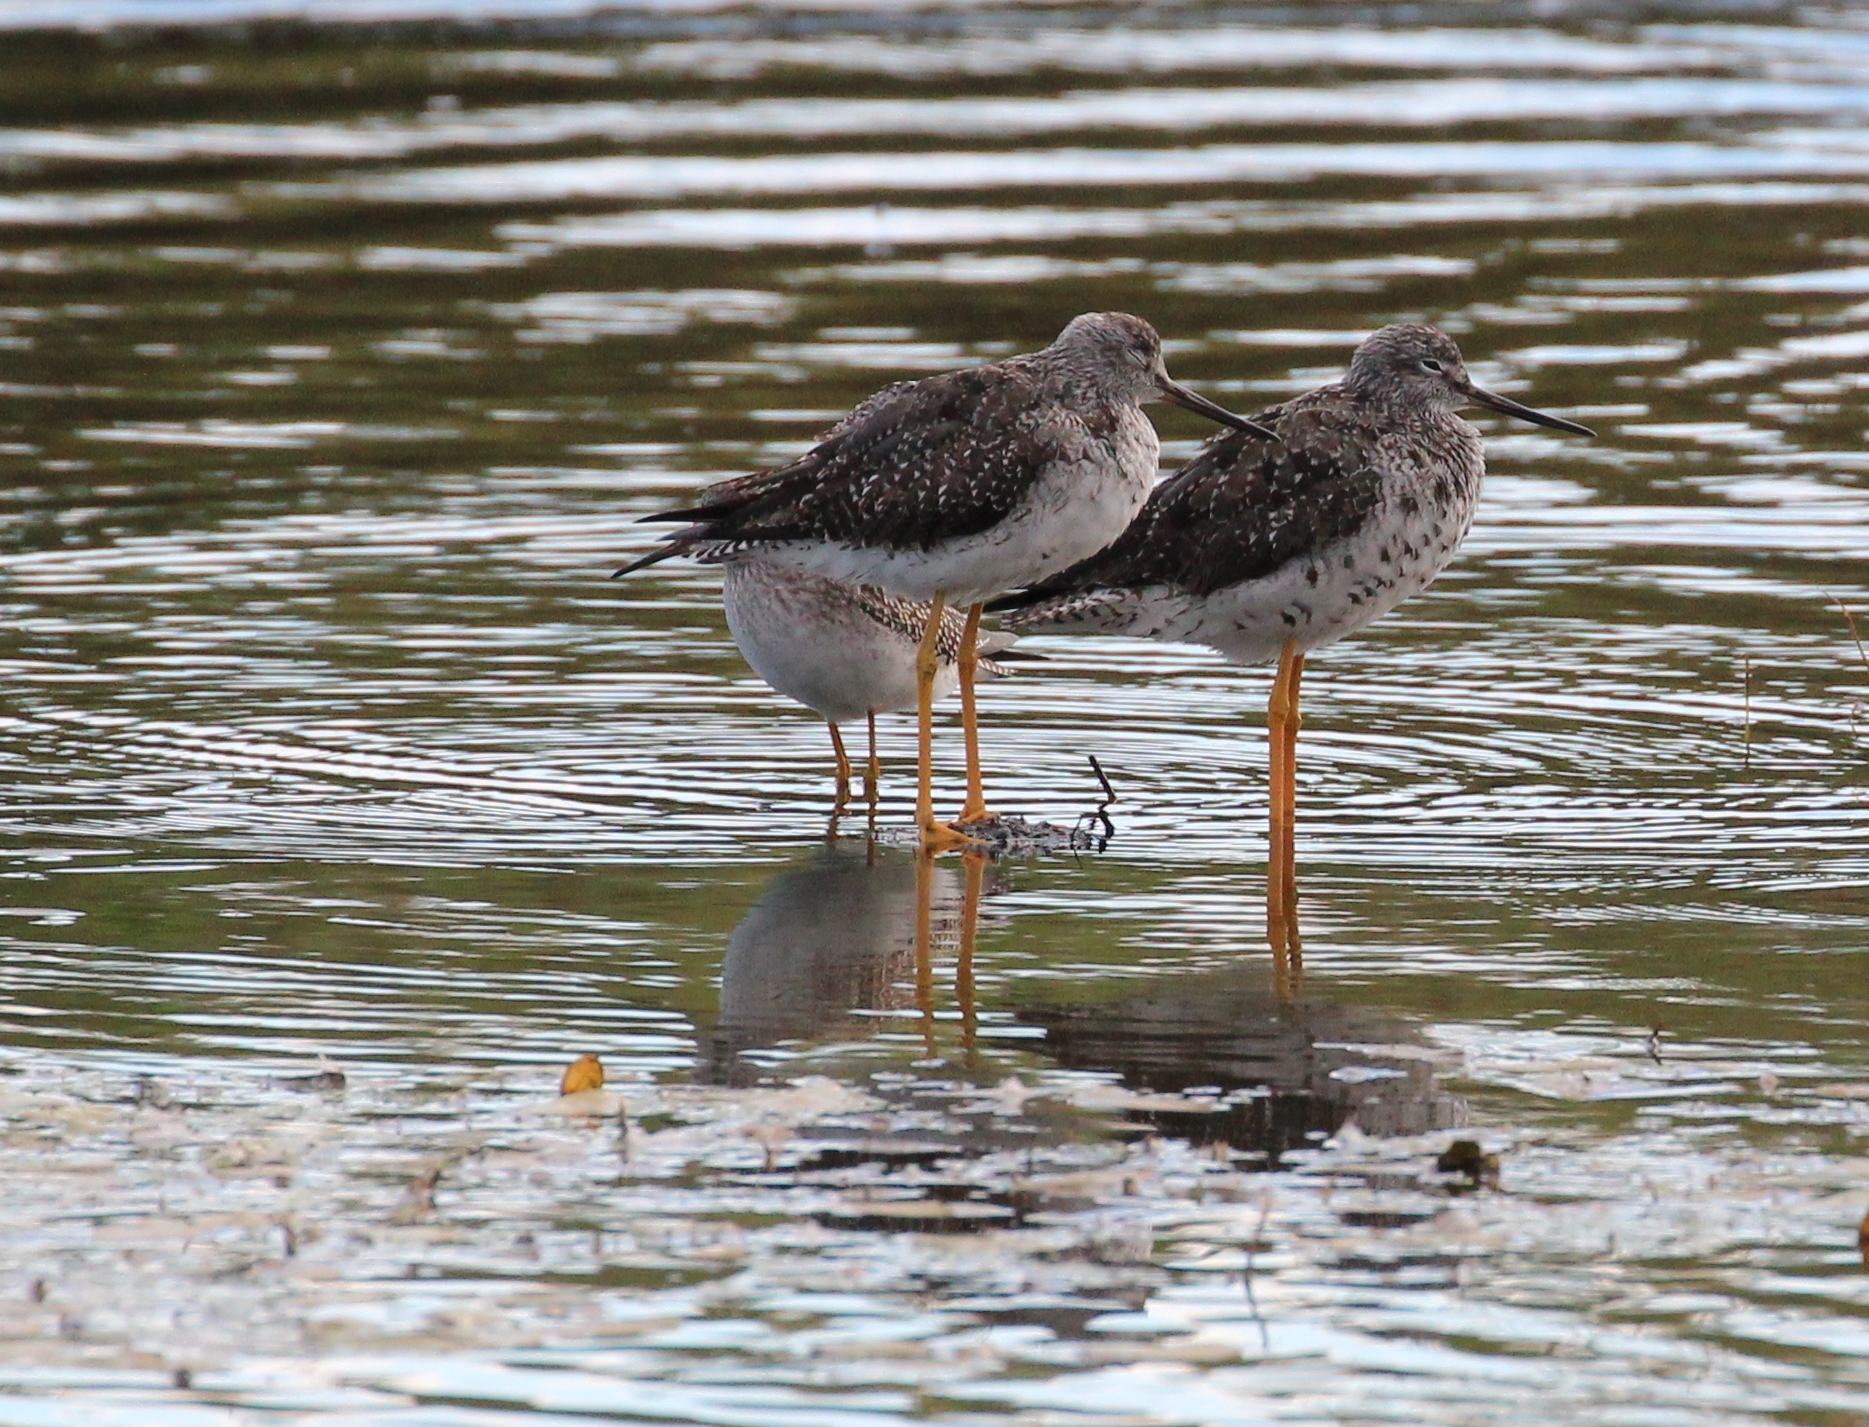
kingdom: Animalia
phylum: Chordata
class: Aves
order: Charadriiformes
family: Scolopacidae
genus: Tringa
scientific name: Tringa melanoleuca
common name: Greater yellowlegs
